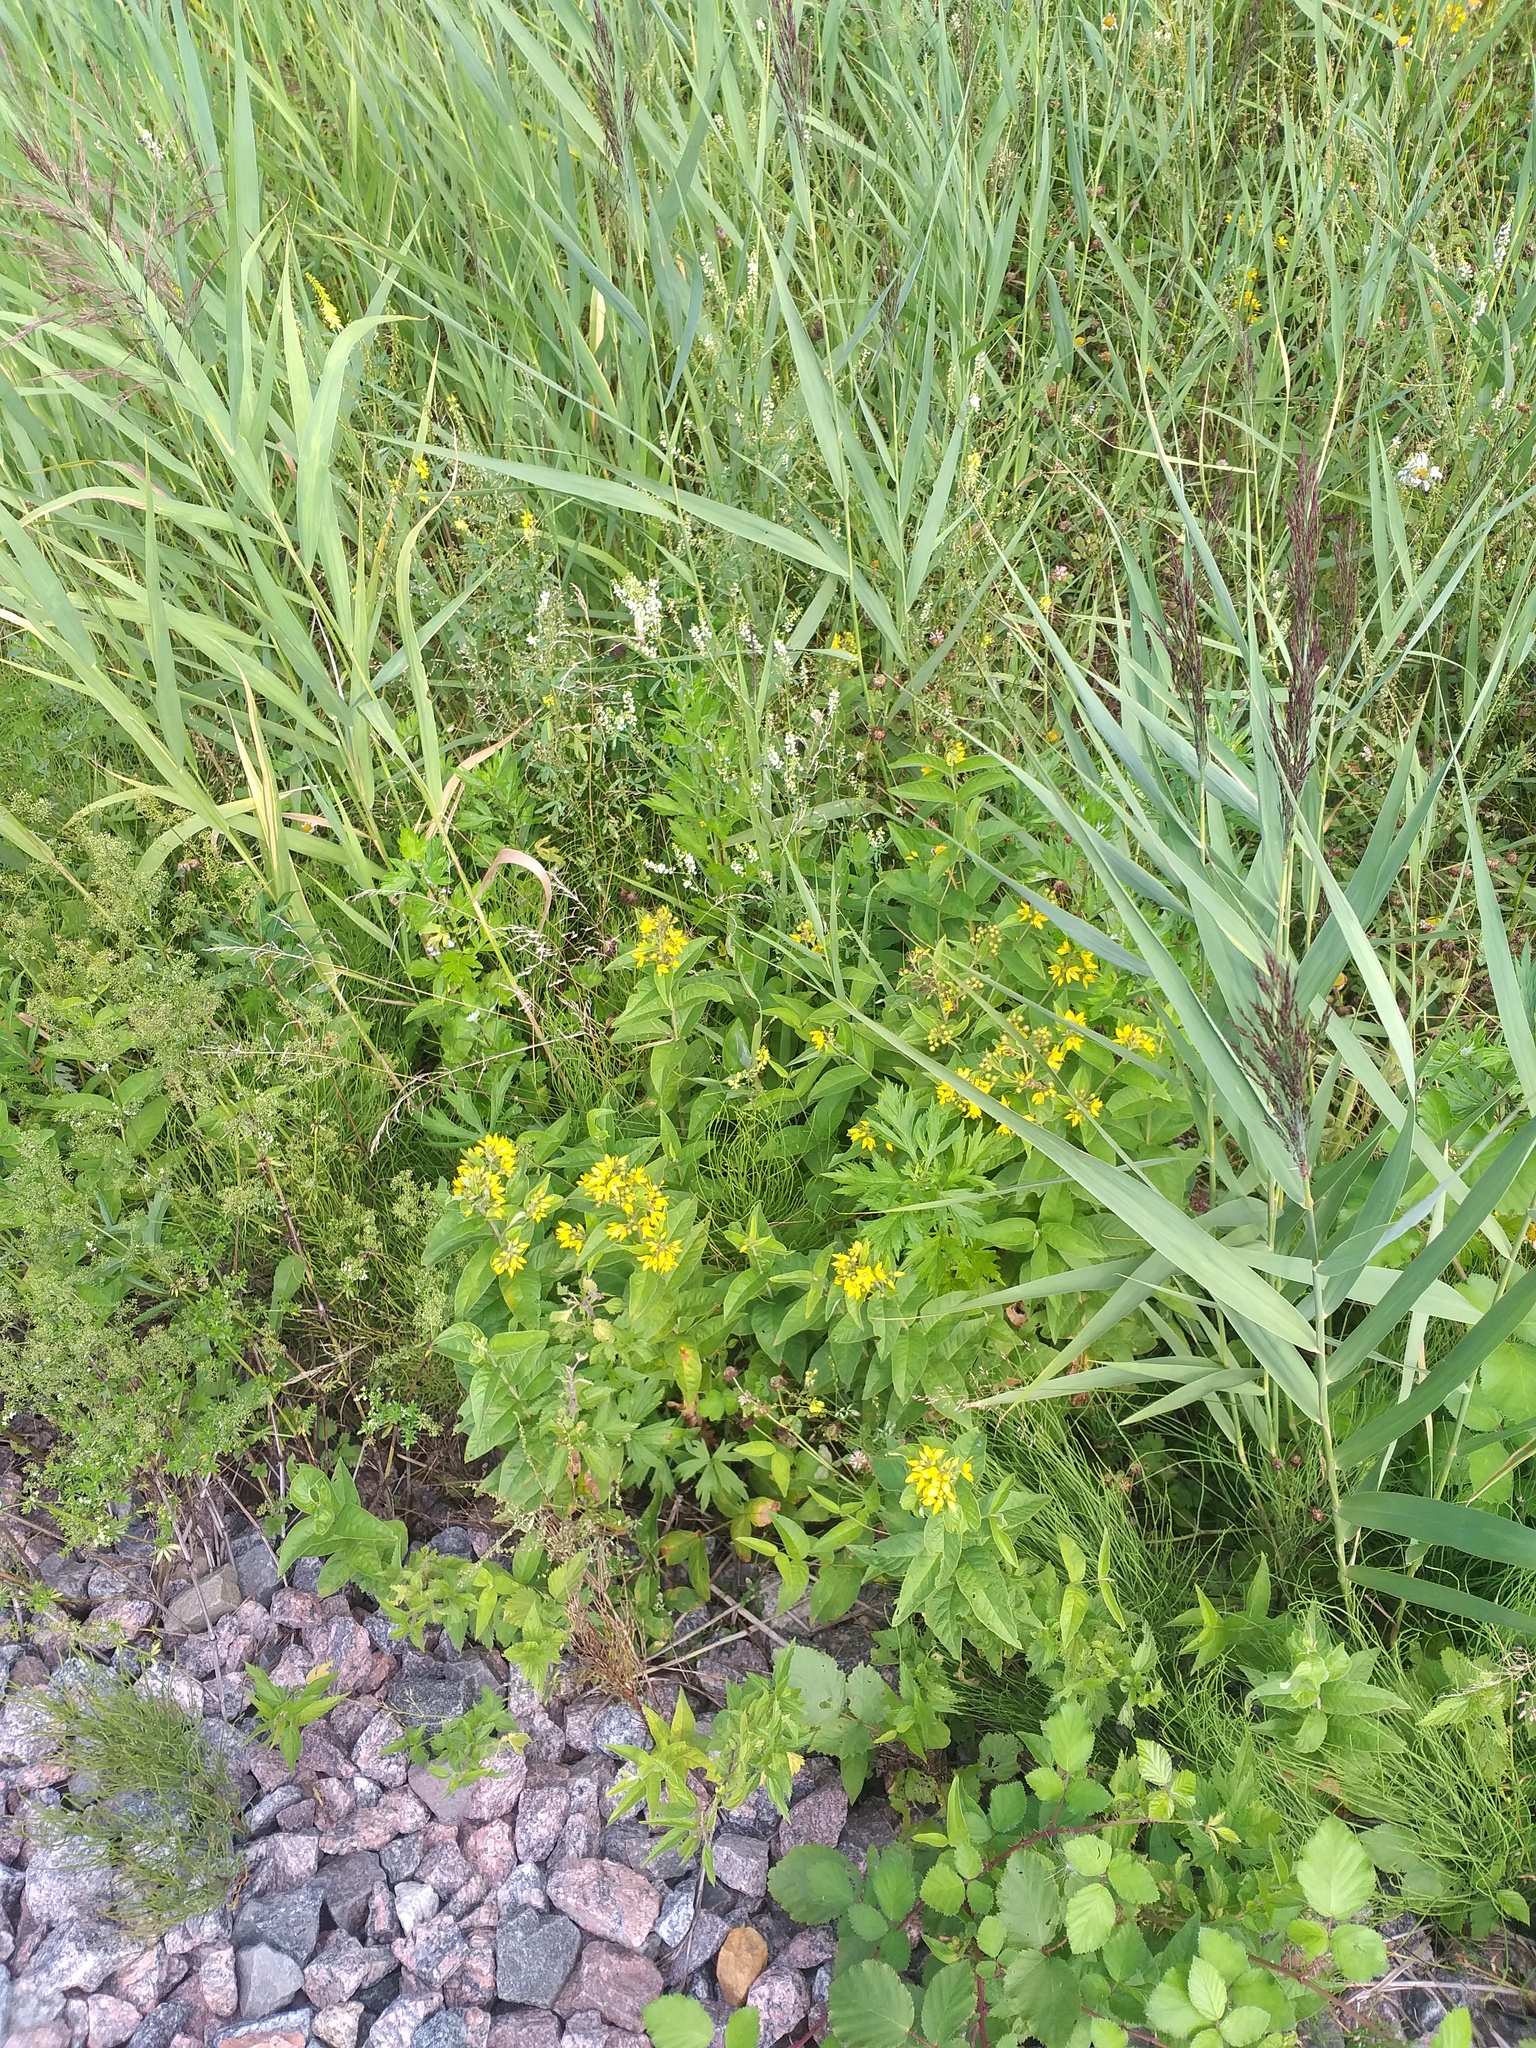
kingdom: Plantae
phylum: Tracheophyta
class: Magnoliopsida
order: Ericales
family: Primulaceae
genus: Lysimachia
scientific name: Lysimachia vulgaris
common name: Yellow loosestrife
